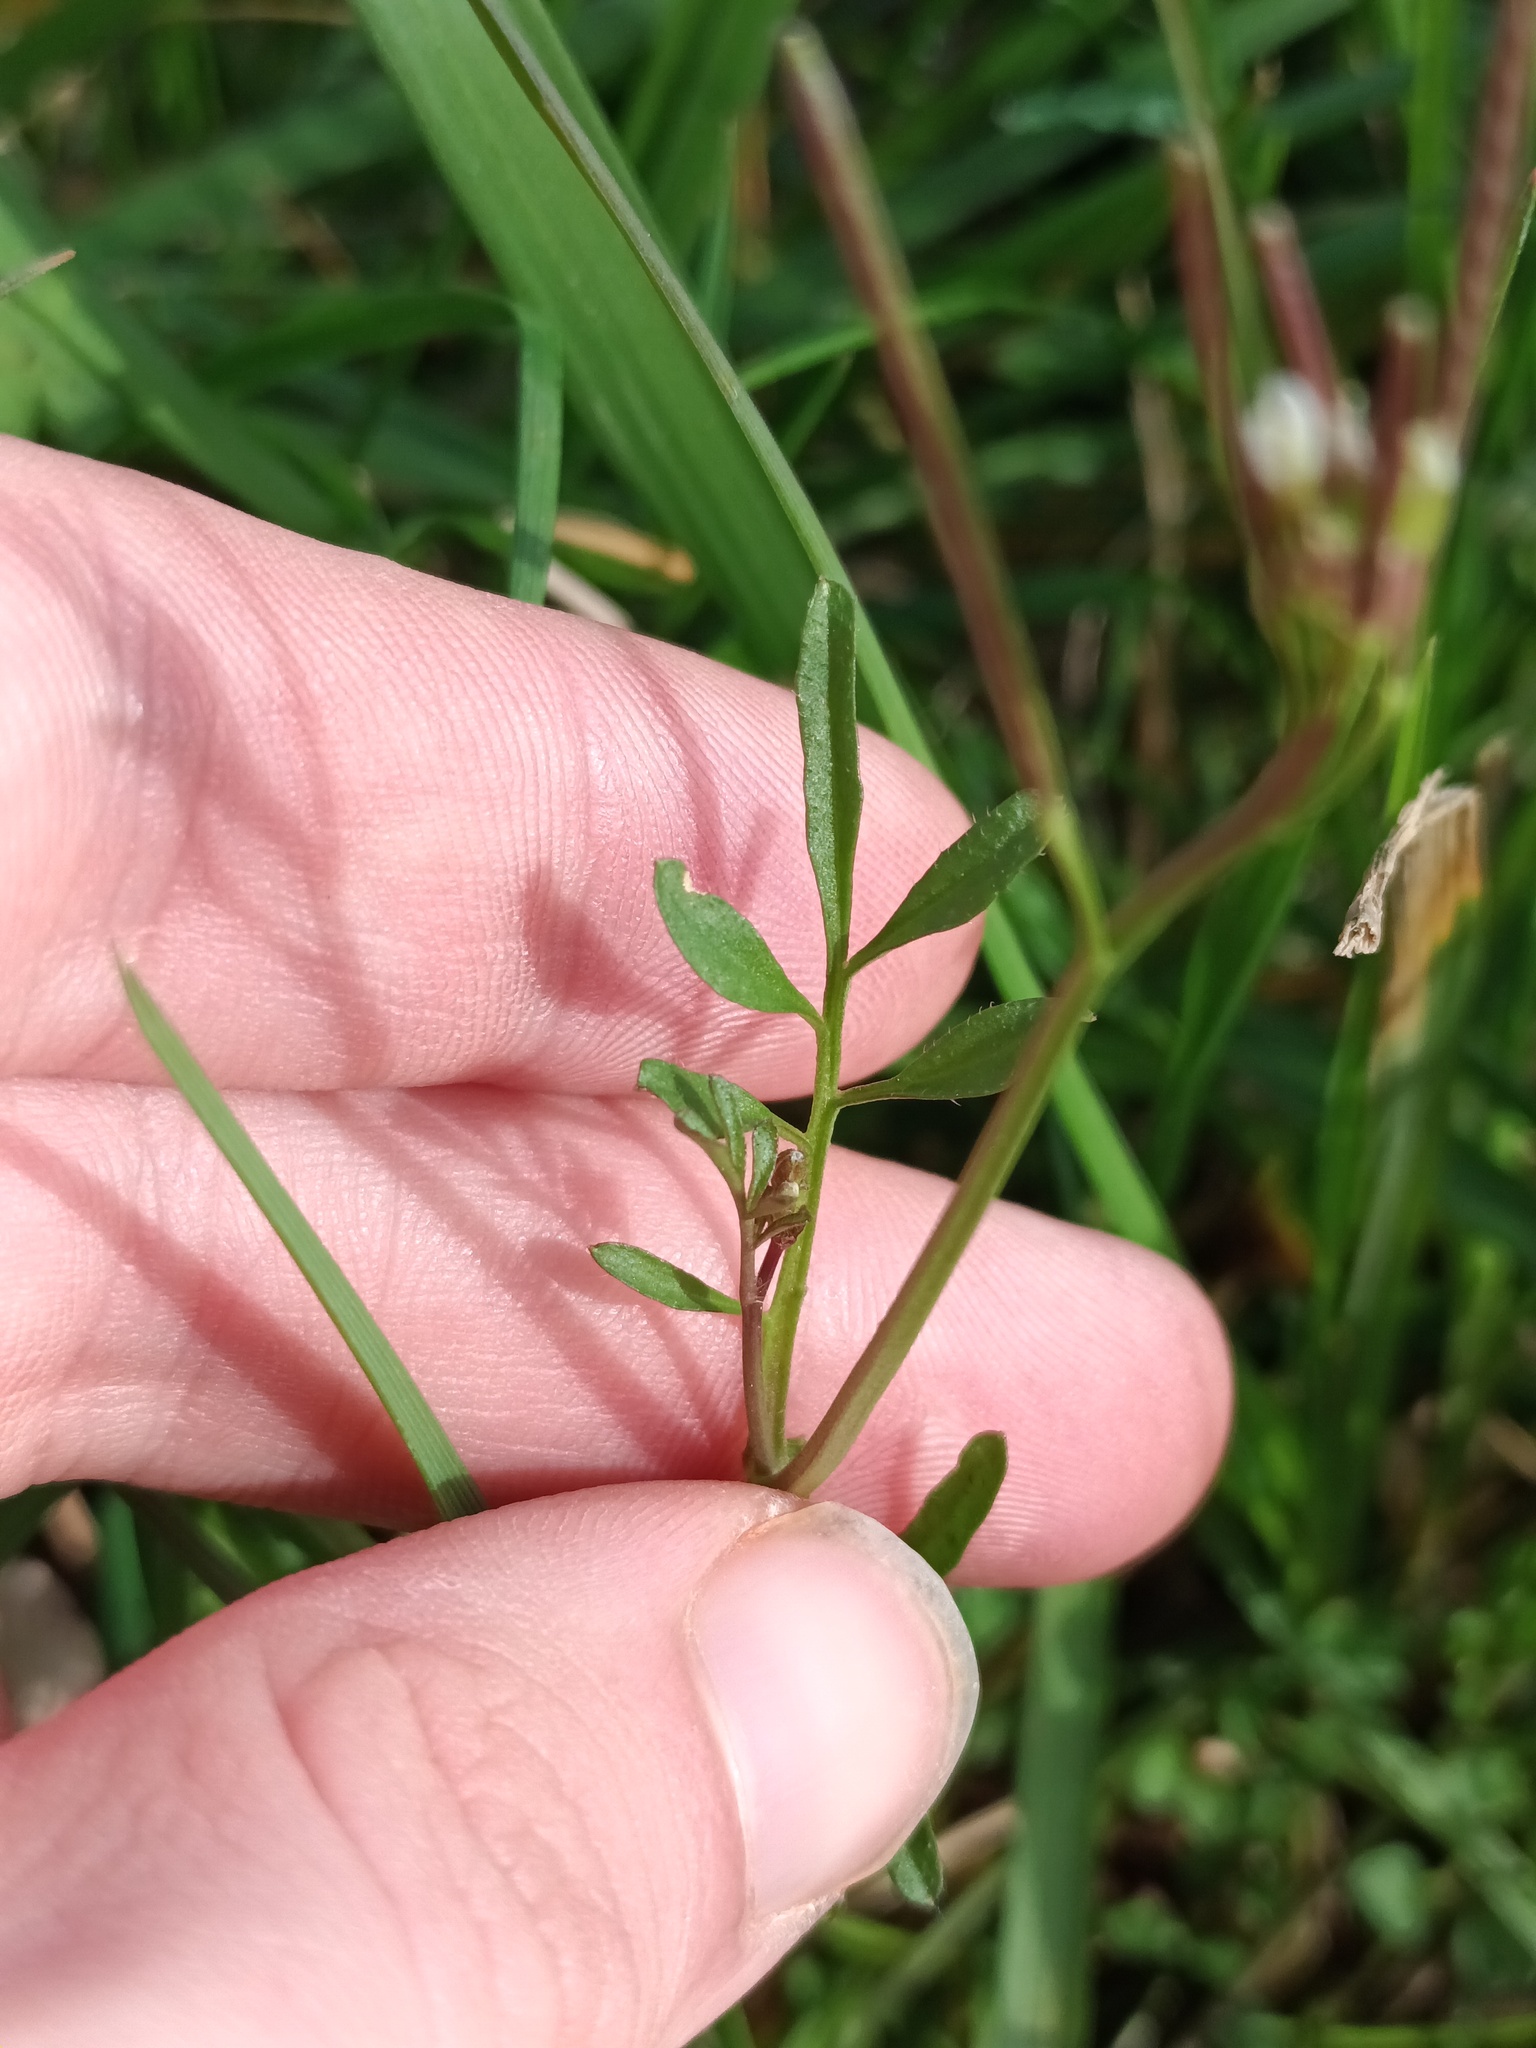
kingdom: Plantae
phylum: Tracheophyta
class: Magnoliopsida
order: Brassicales
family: Brassicaceae
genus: Cardamine
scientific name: Cardamine hirsuta
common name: Hairy bittercress
